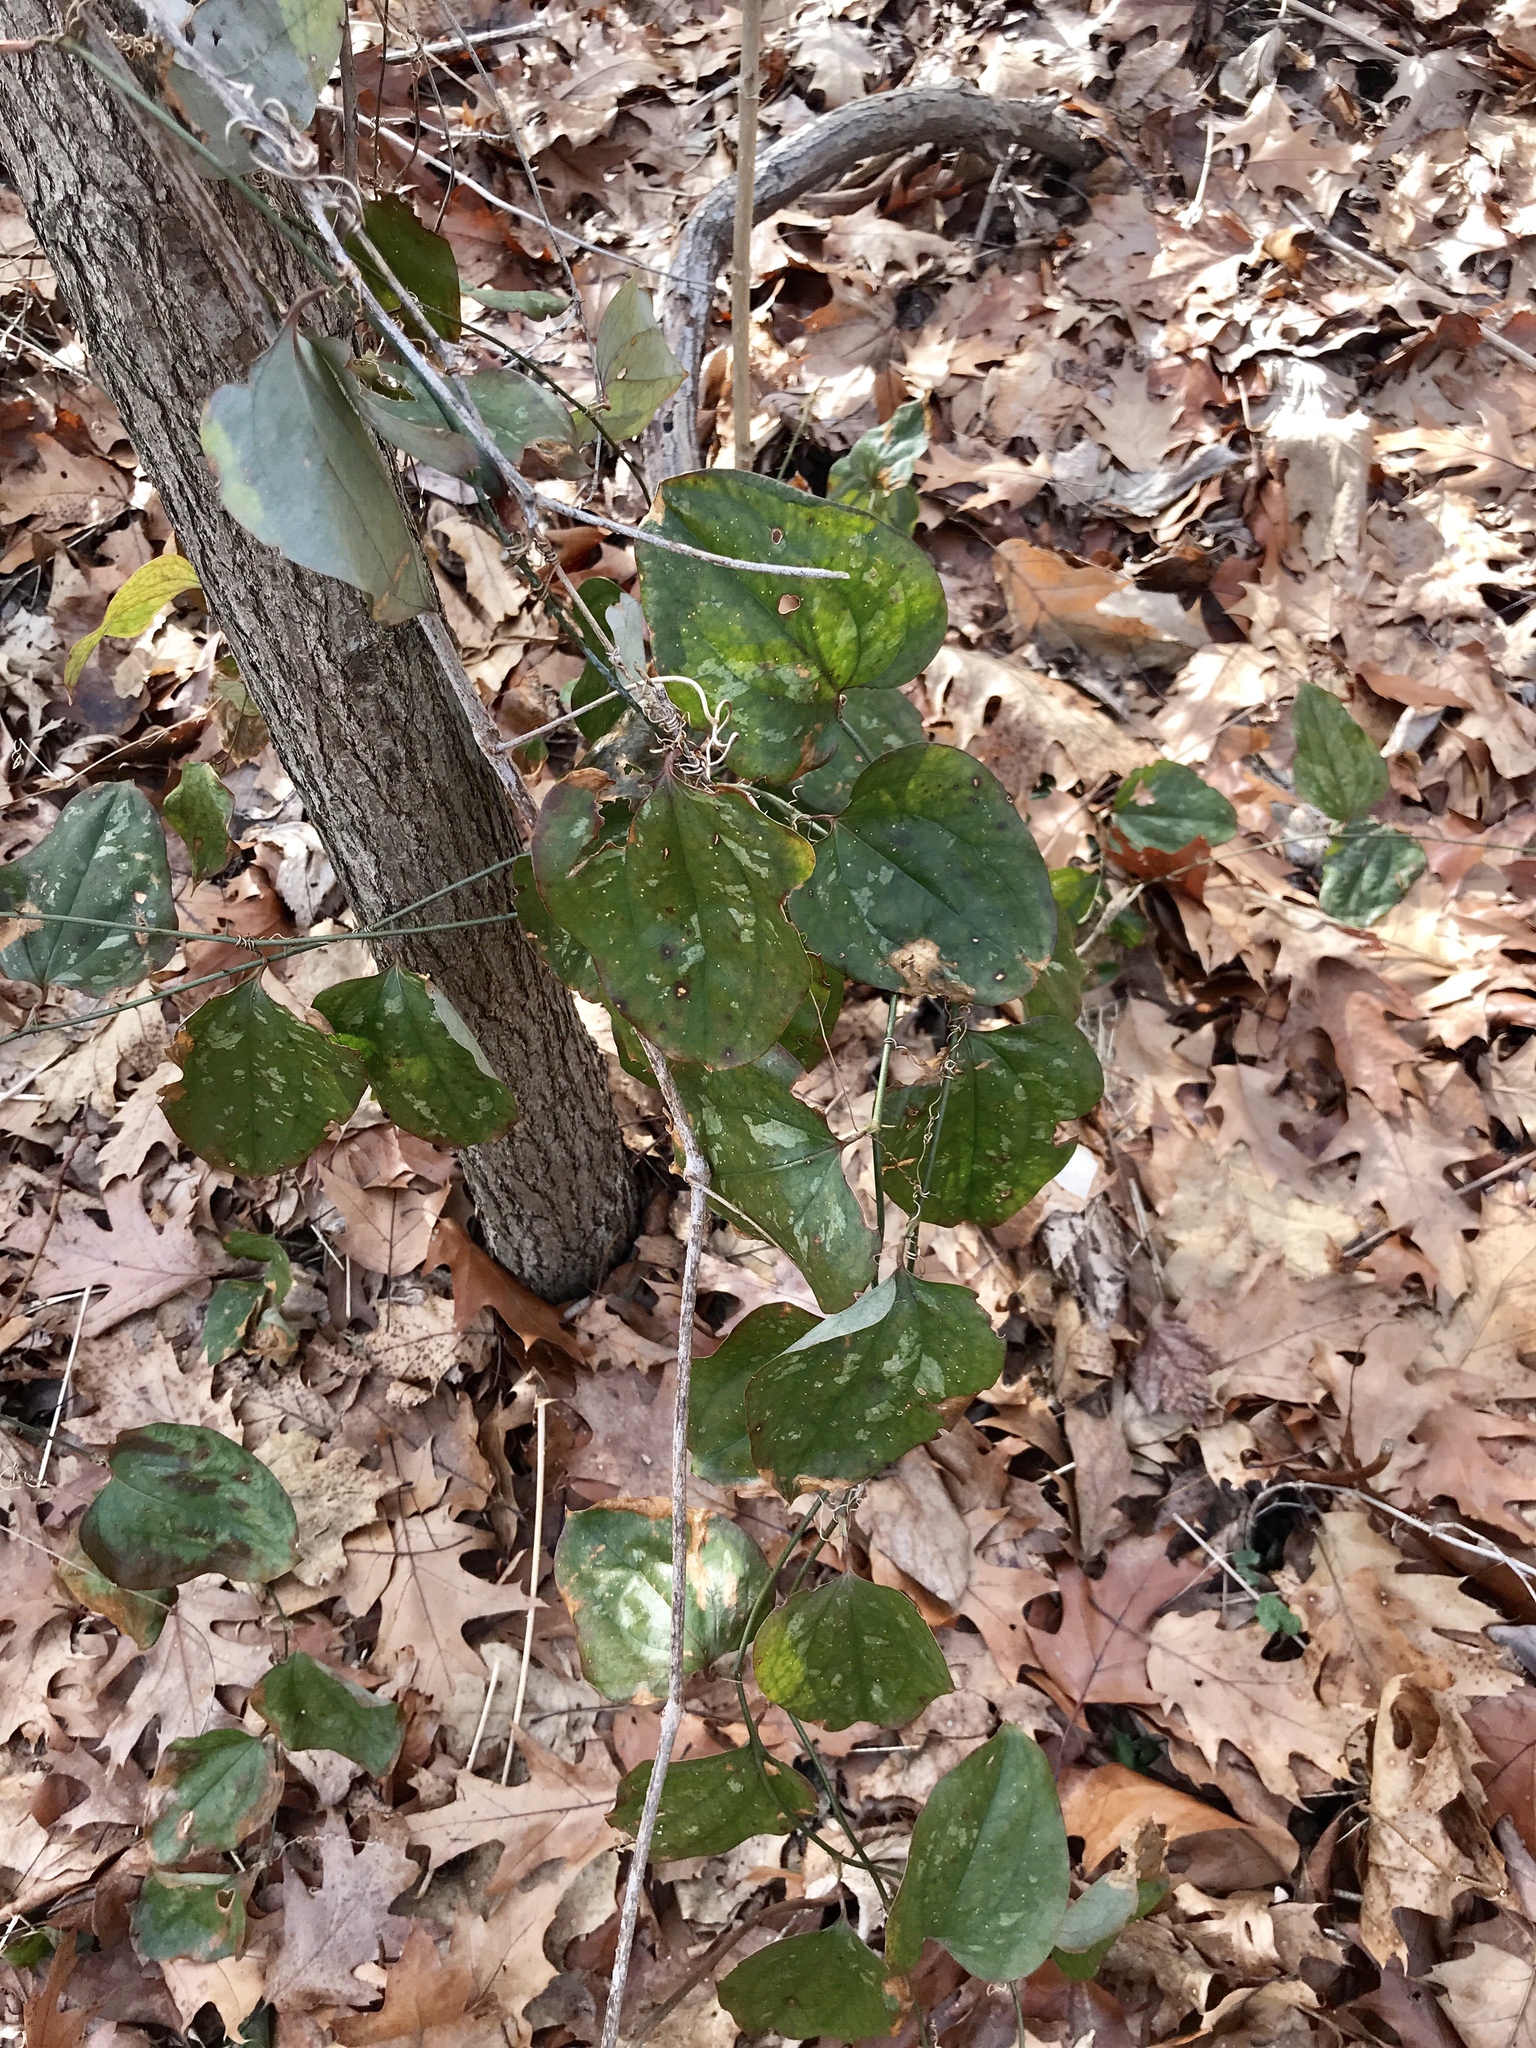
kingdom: Plantae
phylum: Tracheophyta
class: Liliopsida
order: Liliales
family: Smilacaceae
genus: Smilax
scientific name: Smilax glauca
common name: Cat greenbrier
